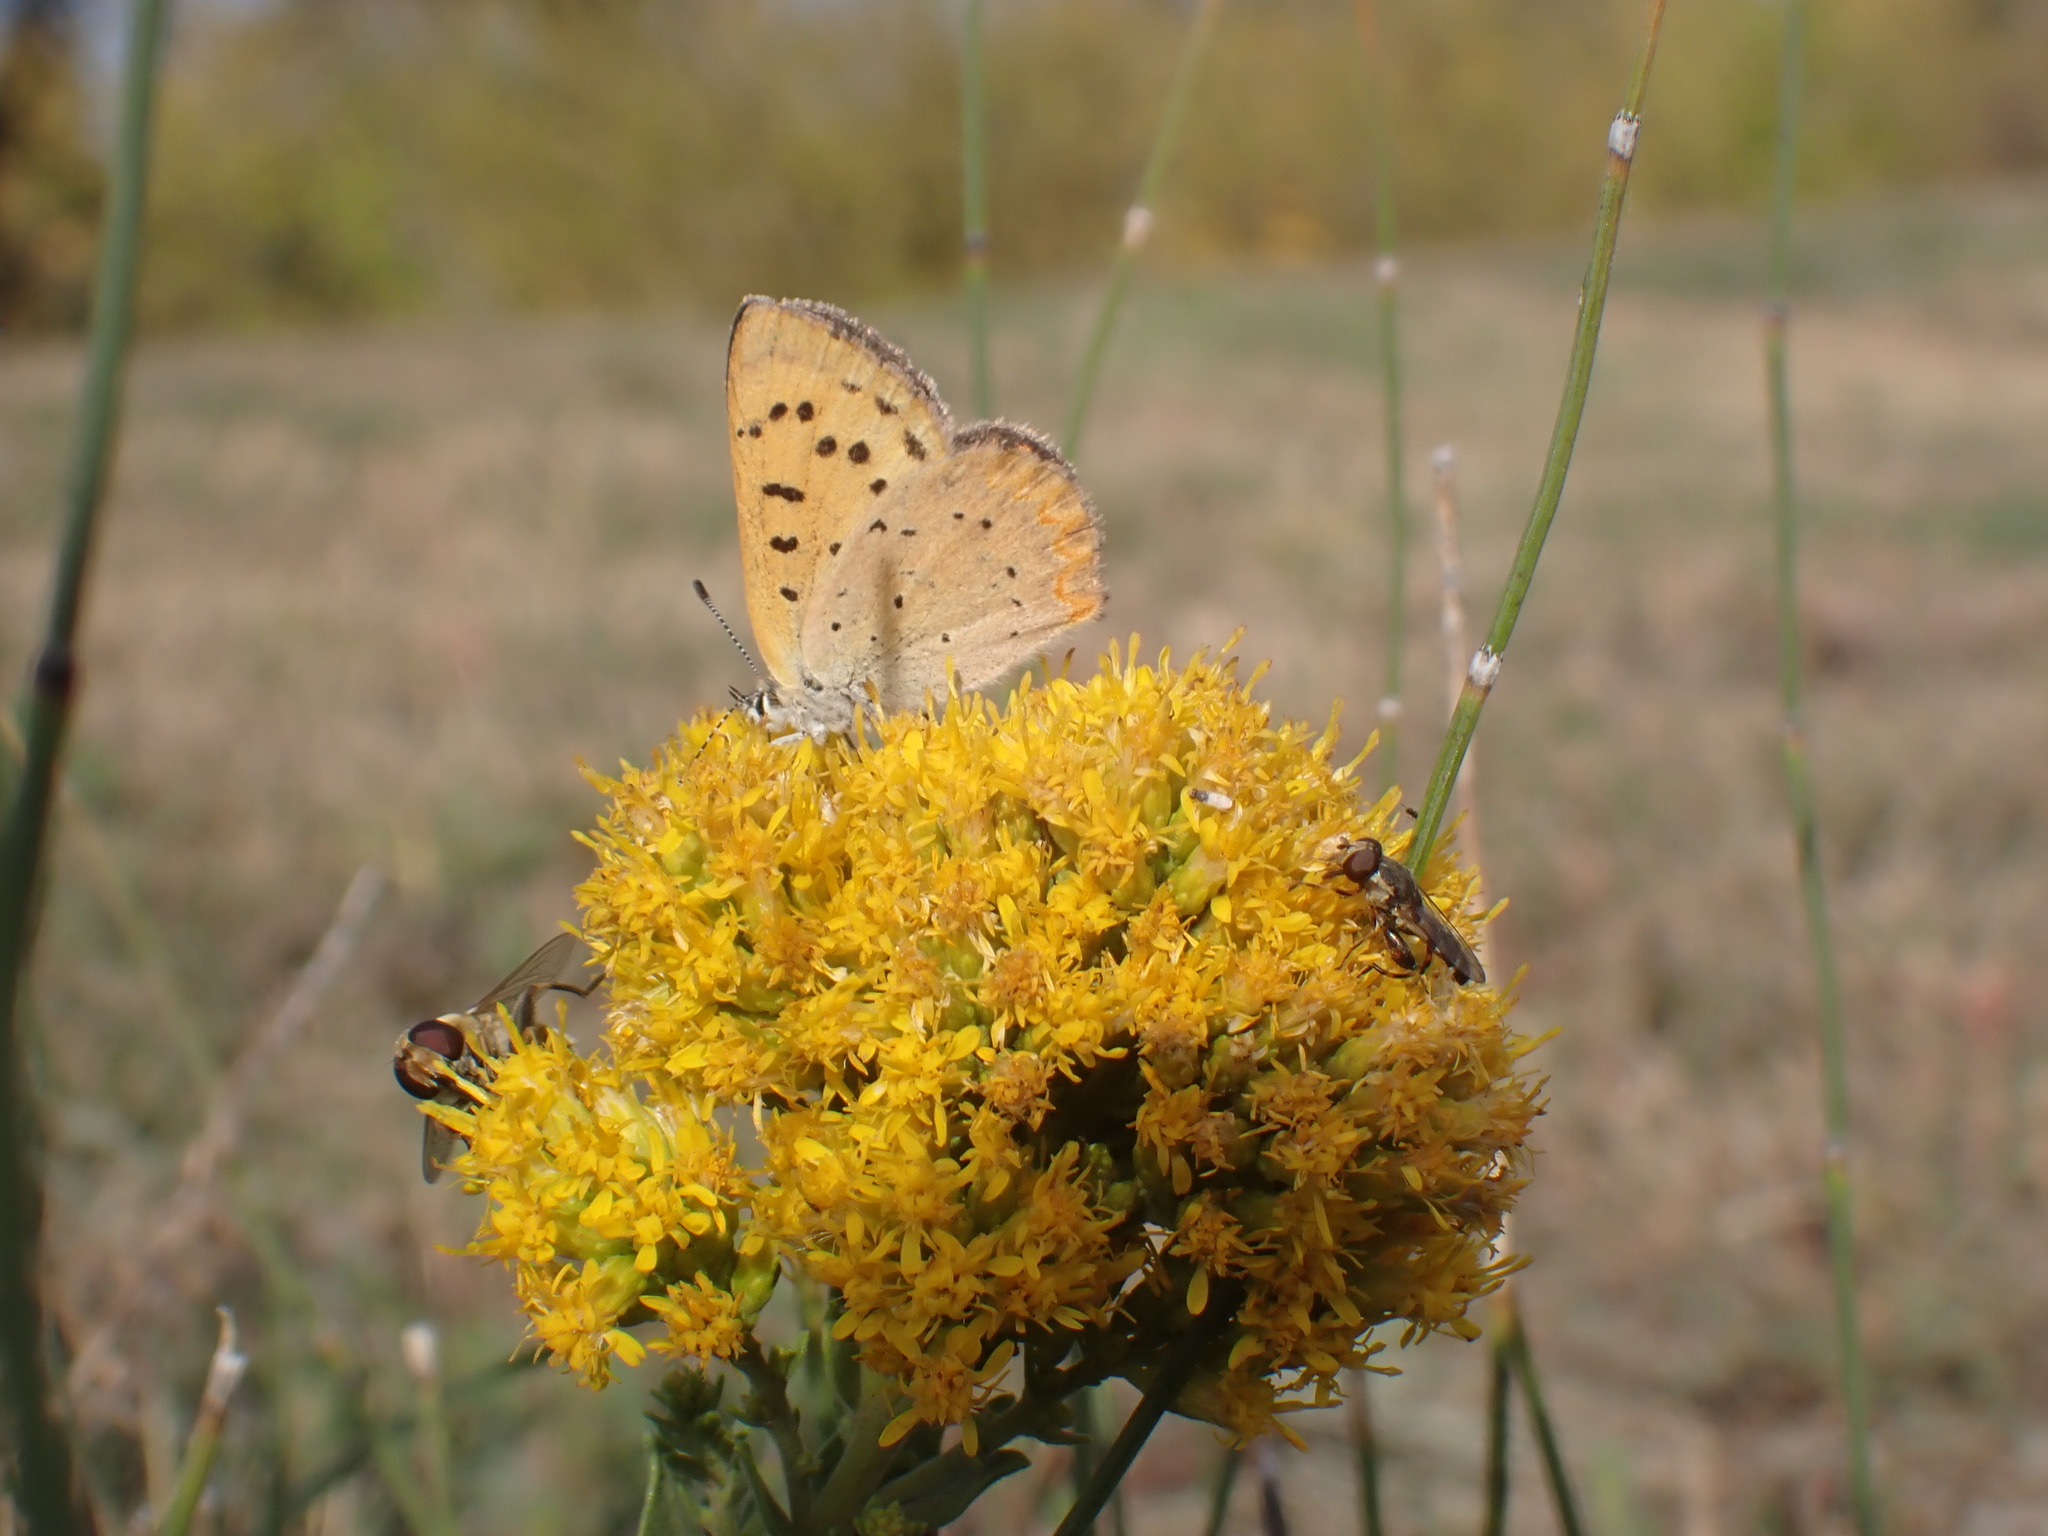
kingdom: Animalia
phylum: Arthropoda
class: Insecta
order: Lepidoptera
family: Lycaenidae
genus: Tharsalea
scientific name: Tharsalea helloides
